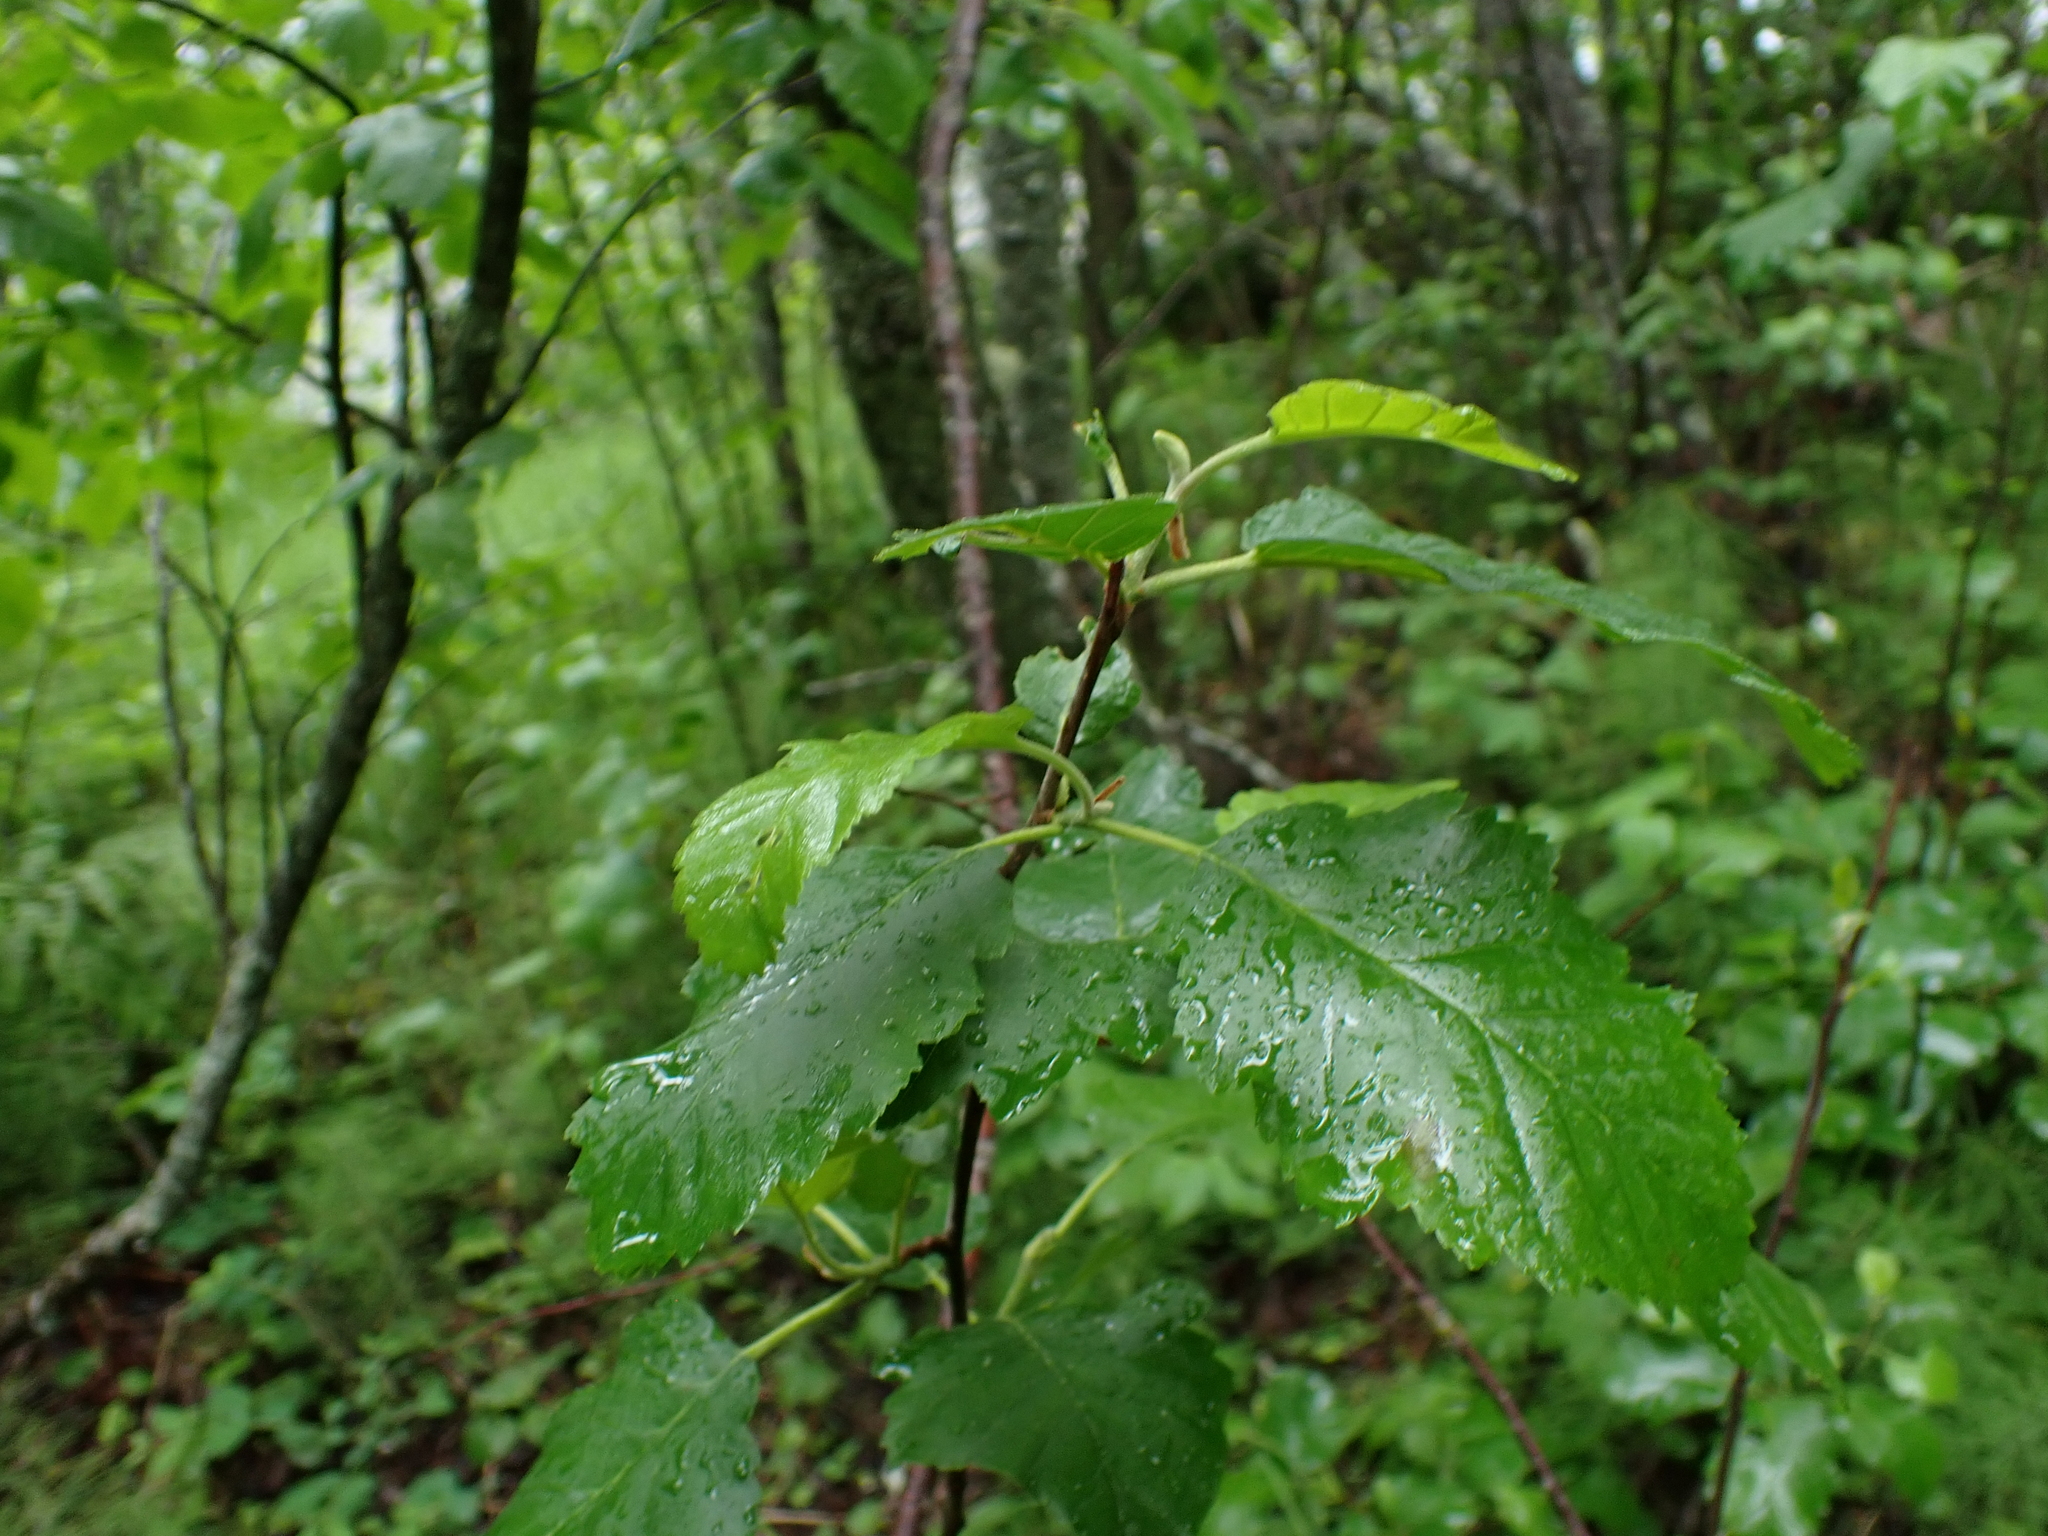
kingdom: Plantae
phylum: Tracheophyta
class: Magnoliopsida
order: Fagales
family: Betulaceae
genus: Alnus
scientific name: Alnus incana
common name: Grey alder
